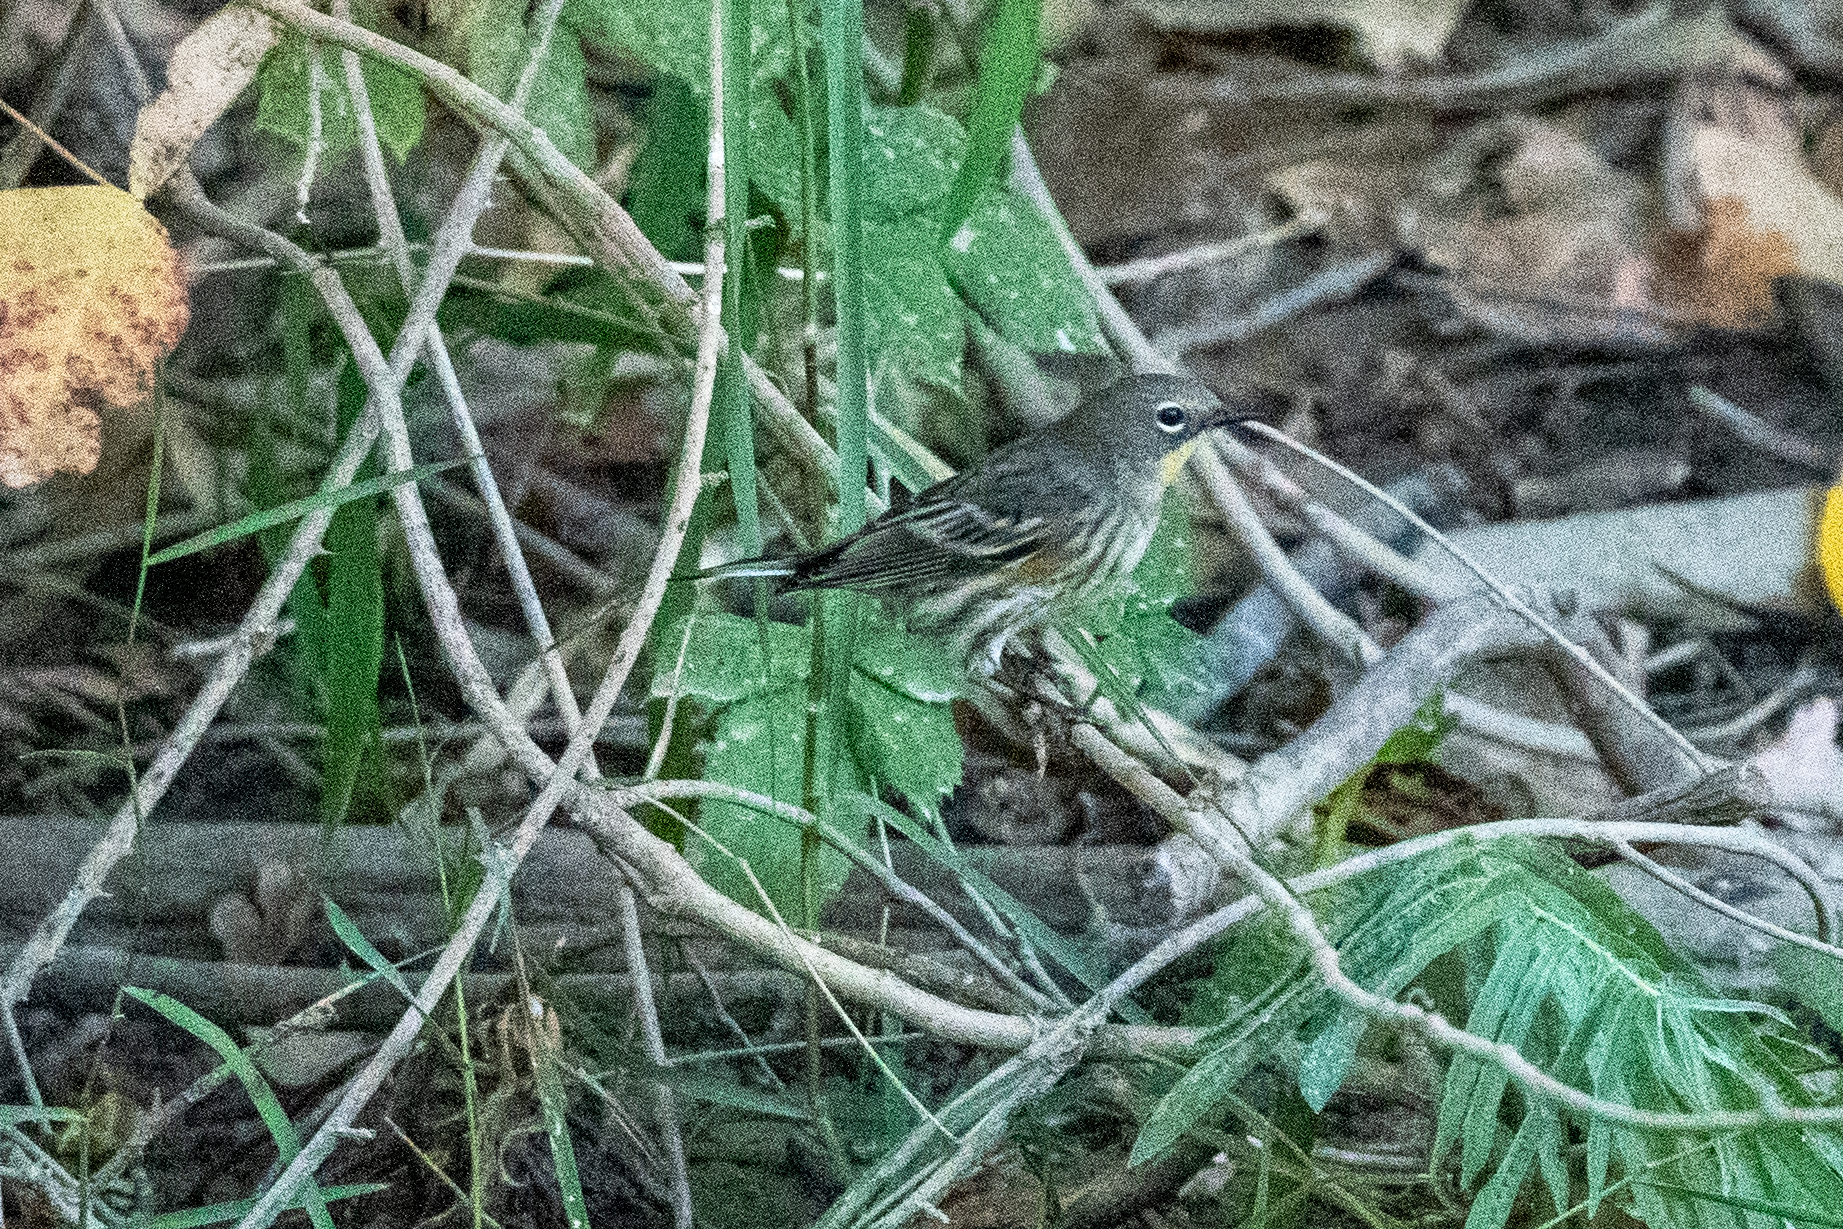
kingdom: Animalia
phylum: Chordata
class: Aves
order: Passeriformes
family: Parulidae
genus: Setophaga
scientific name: Setophaga coronata
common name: Myrtle warbler
